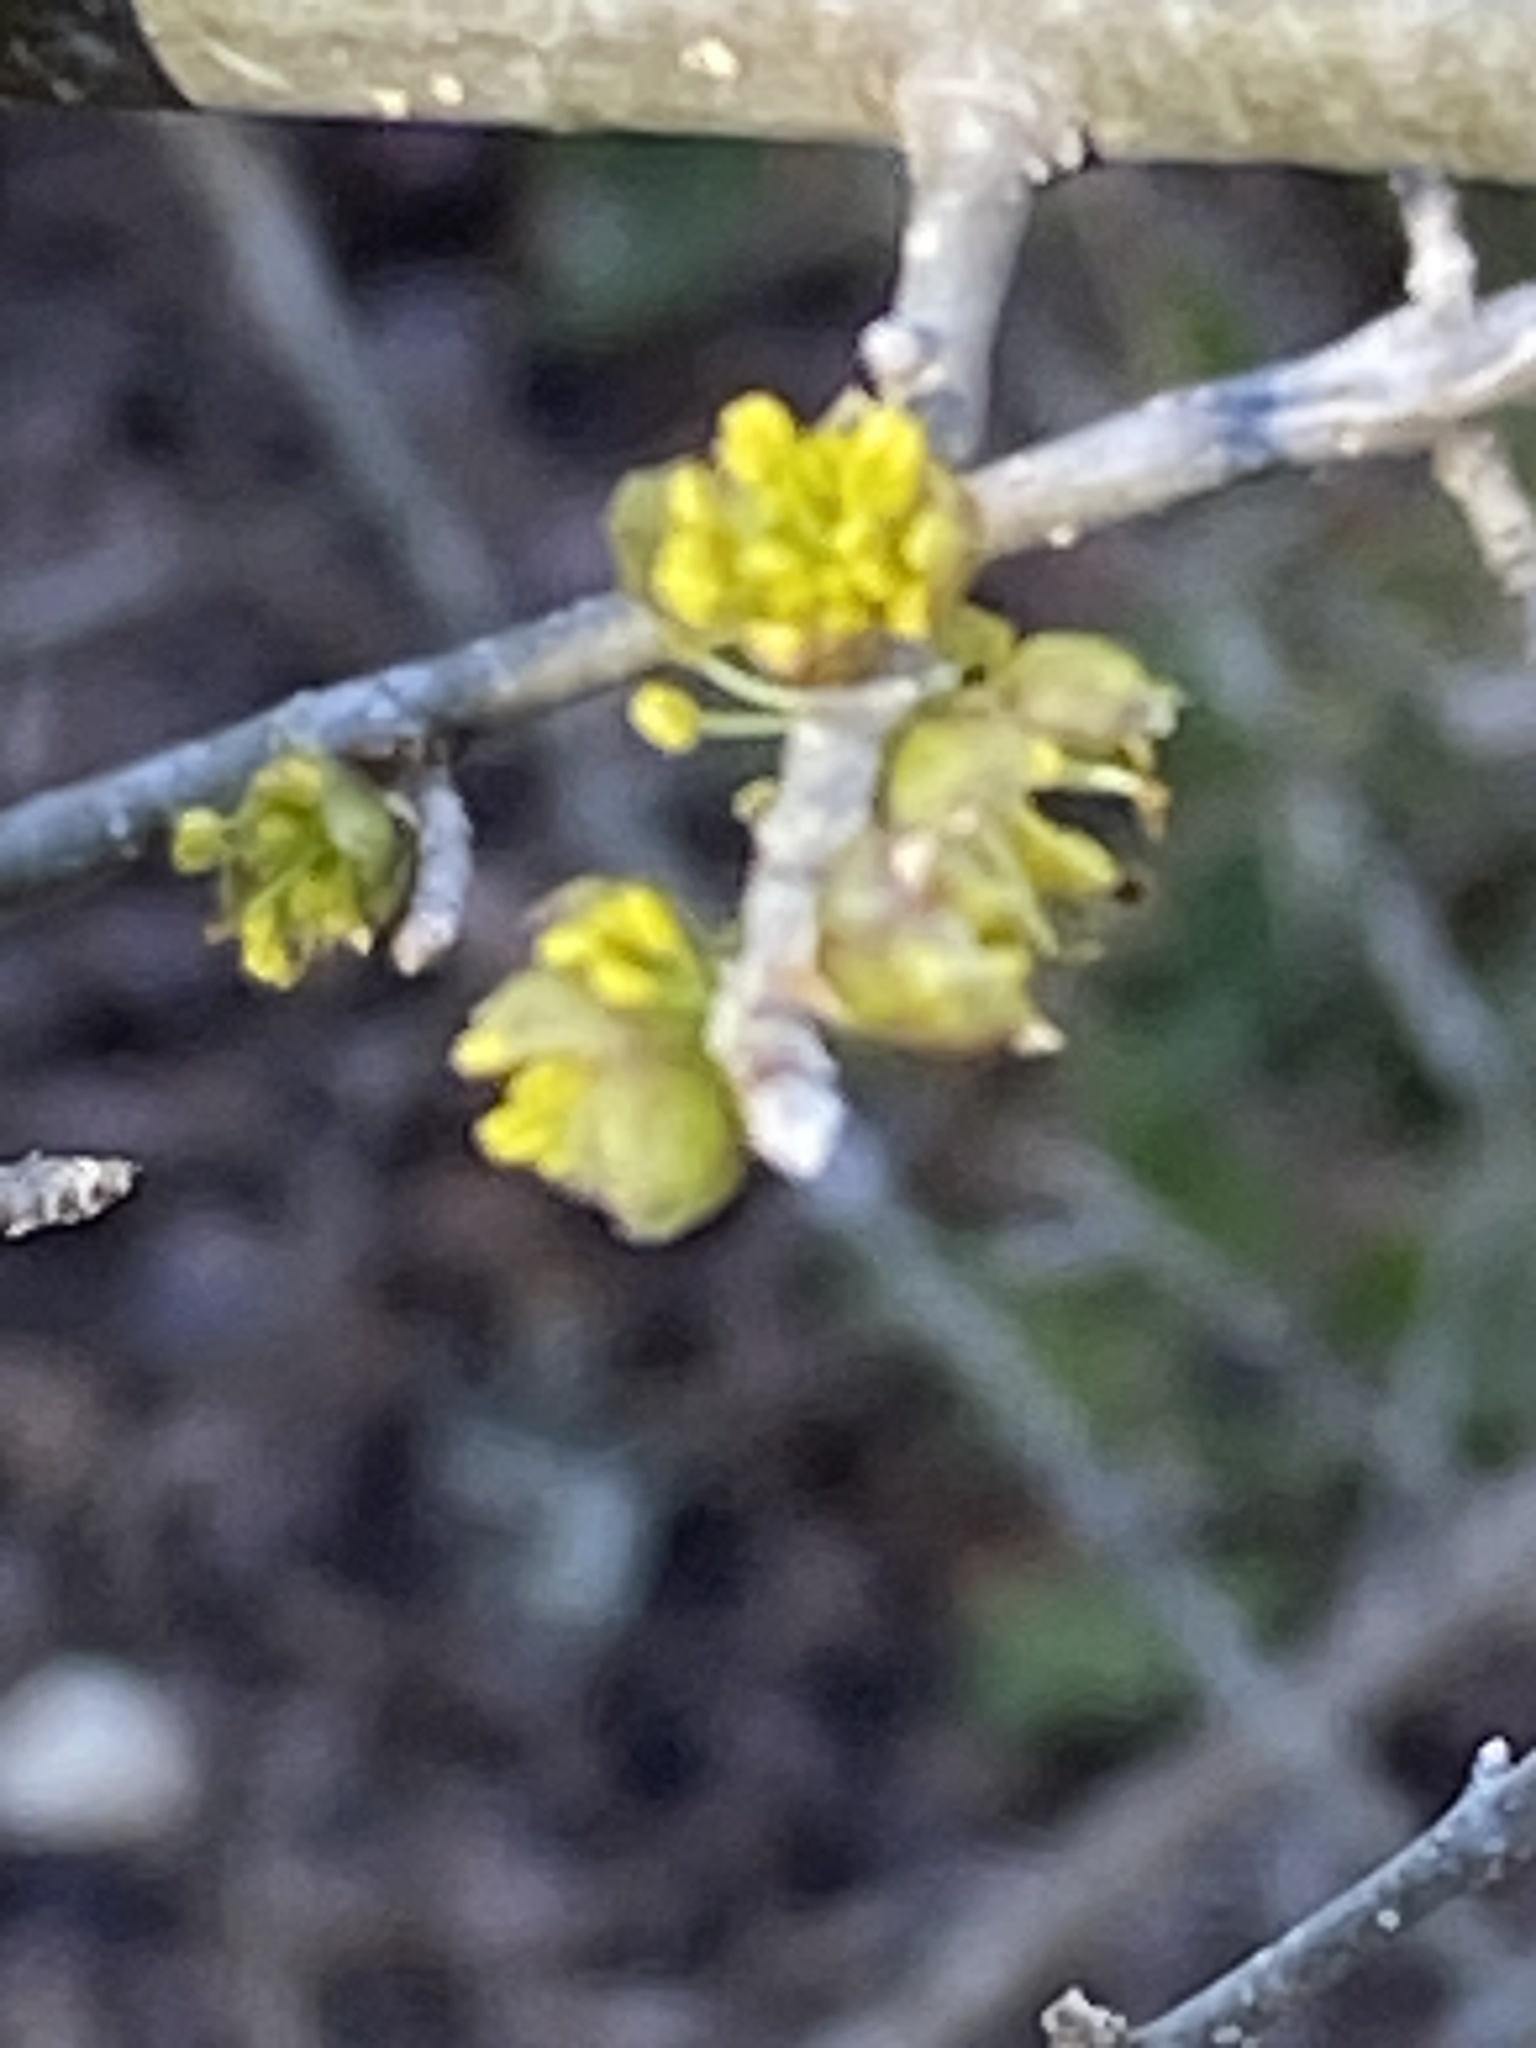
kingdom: Plantae
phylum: Tracheophyta
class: Magnoliopsida
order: Lamiales
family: Oleaceae
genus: Forestiera
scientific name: Forestiera pubescens
